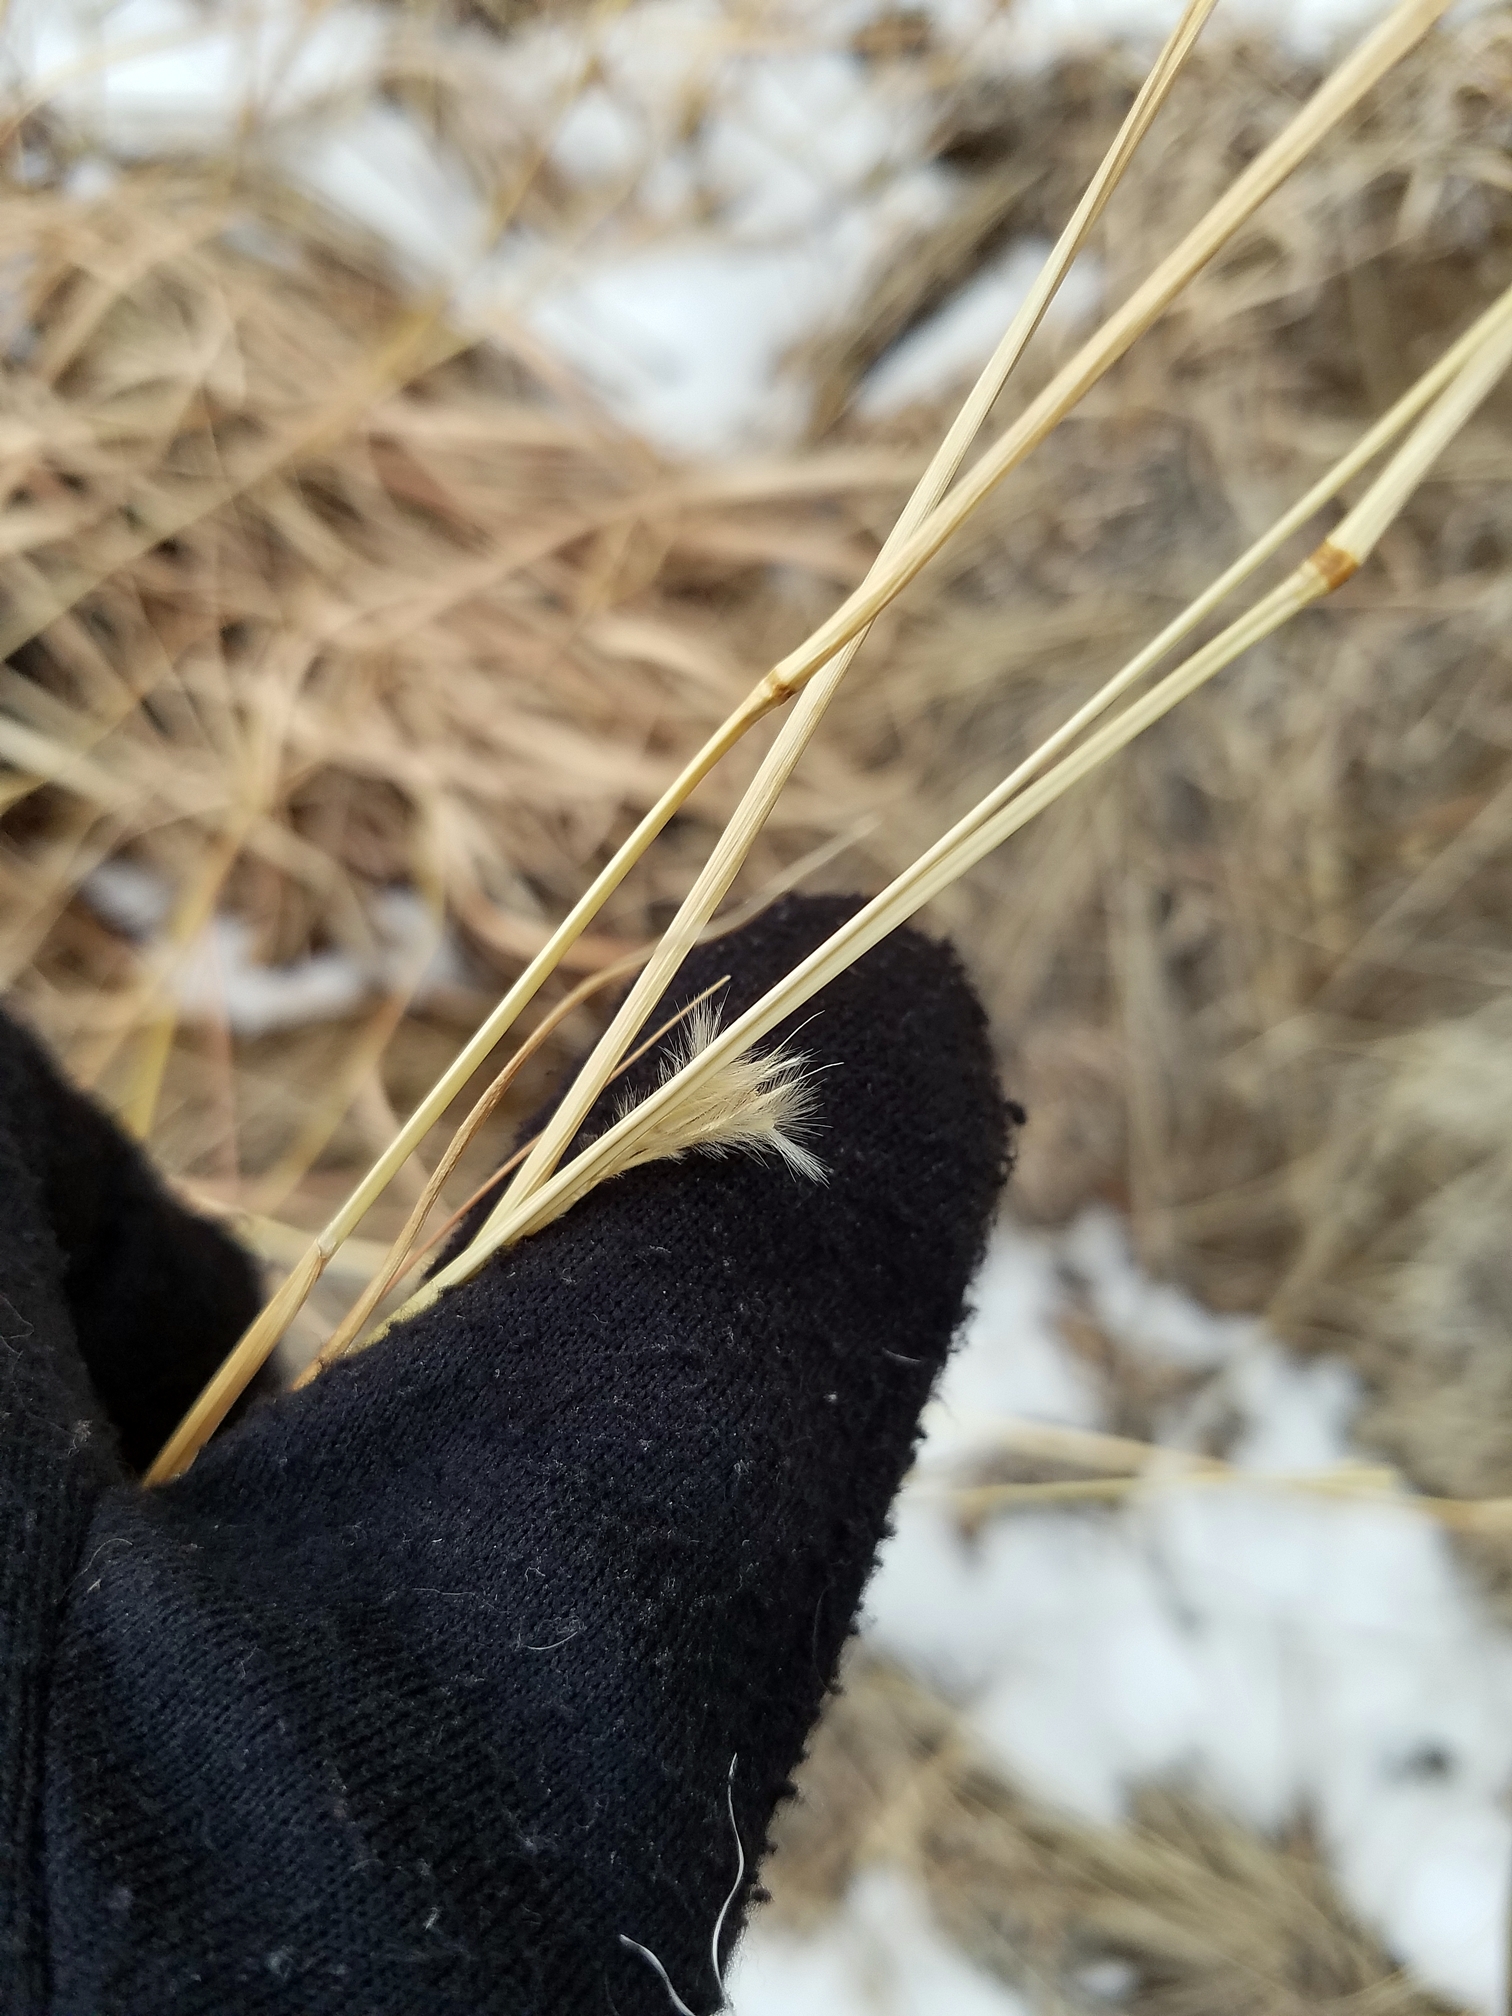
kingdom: Plantae
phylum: Tracheophyta
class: Liliopsida
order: Poales
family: Poaceae
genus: Andropogon
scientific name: Andropogon hallii
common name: Sand bluestem
